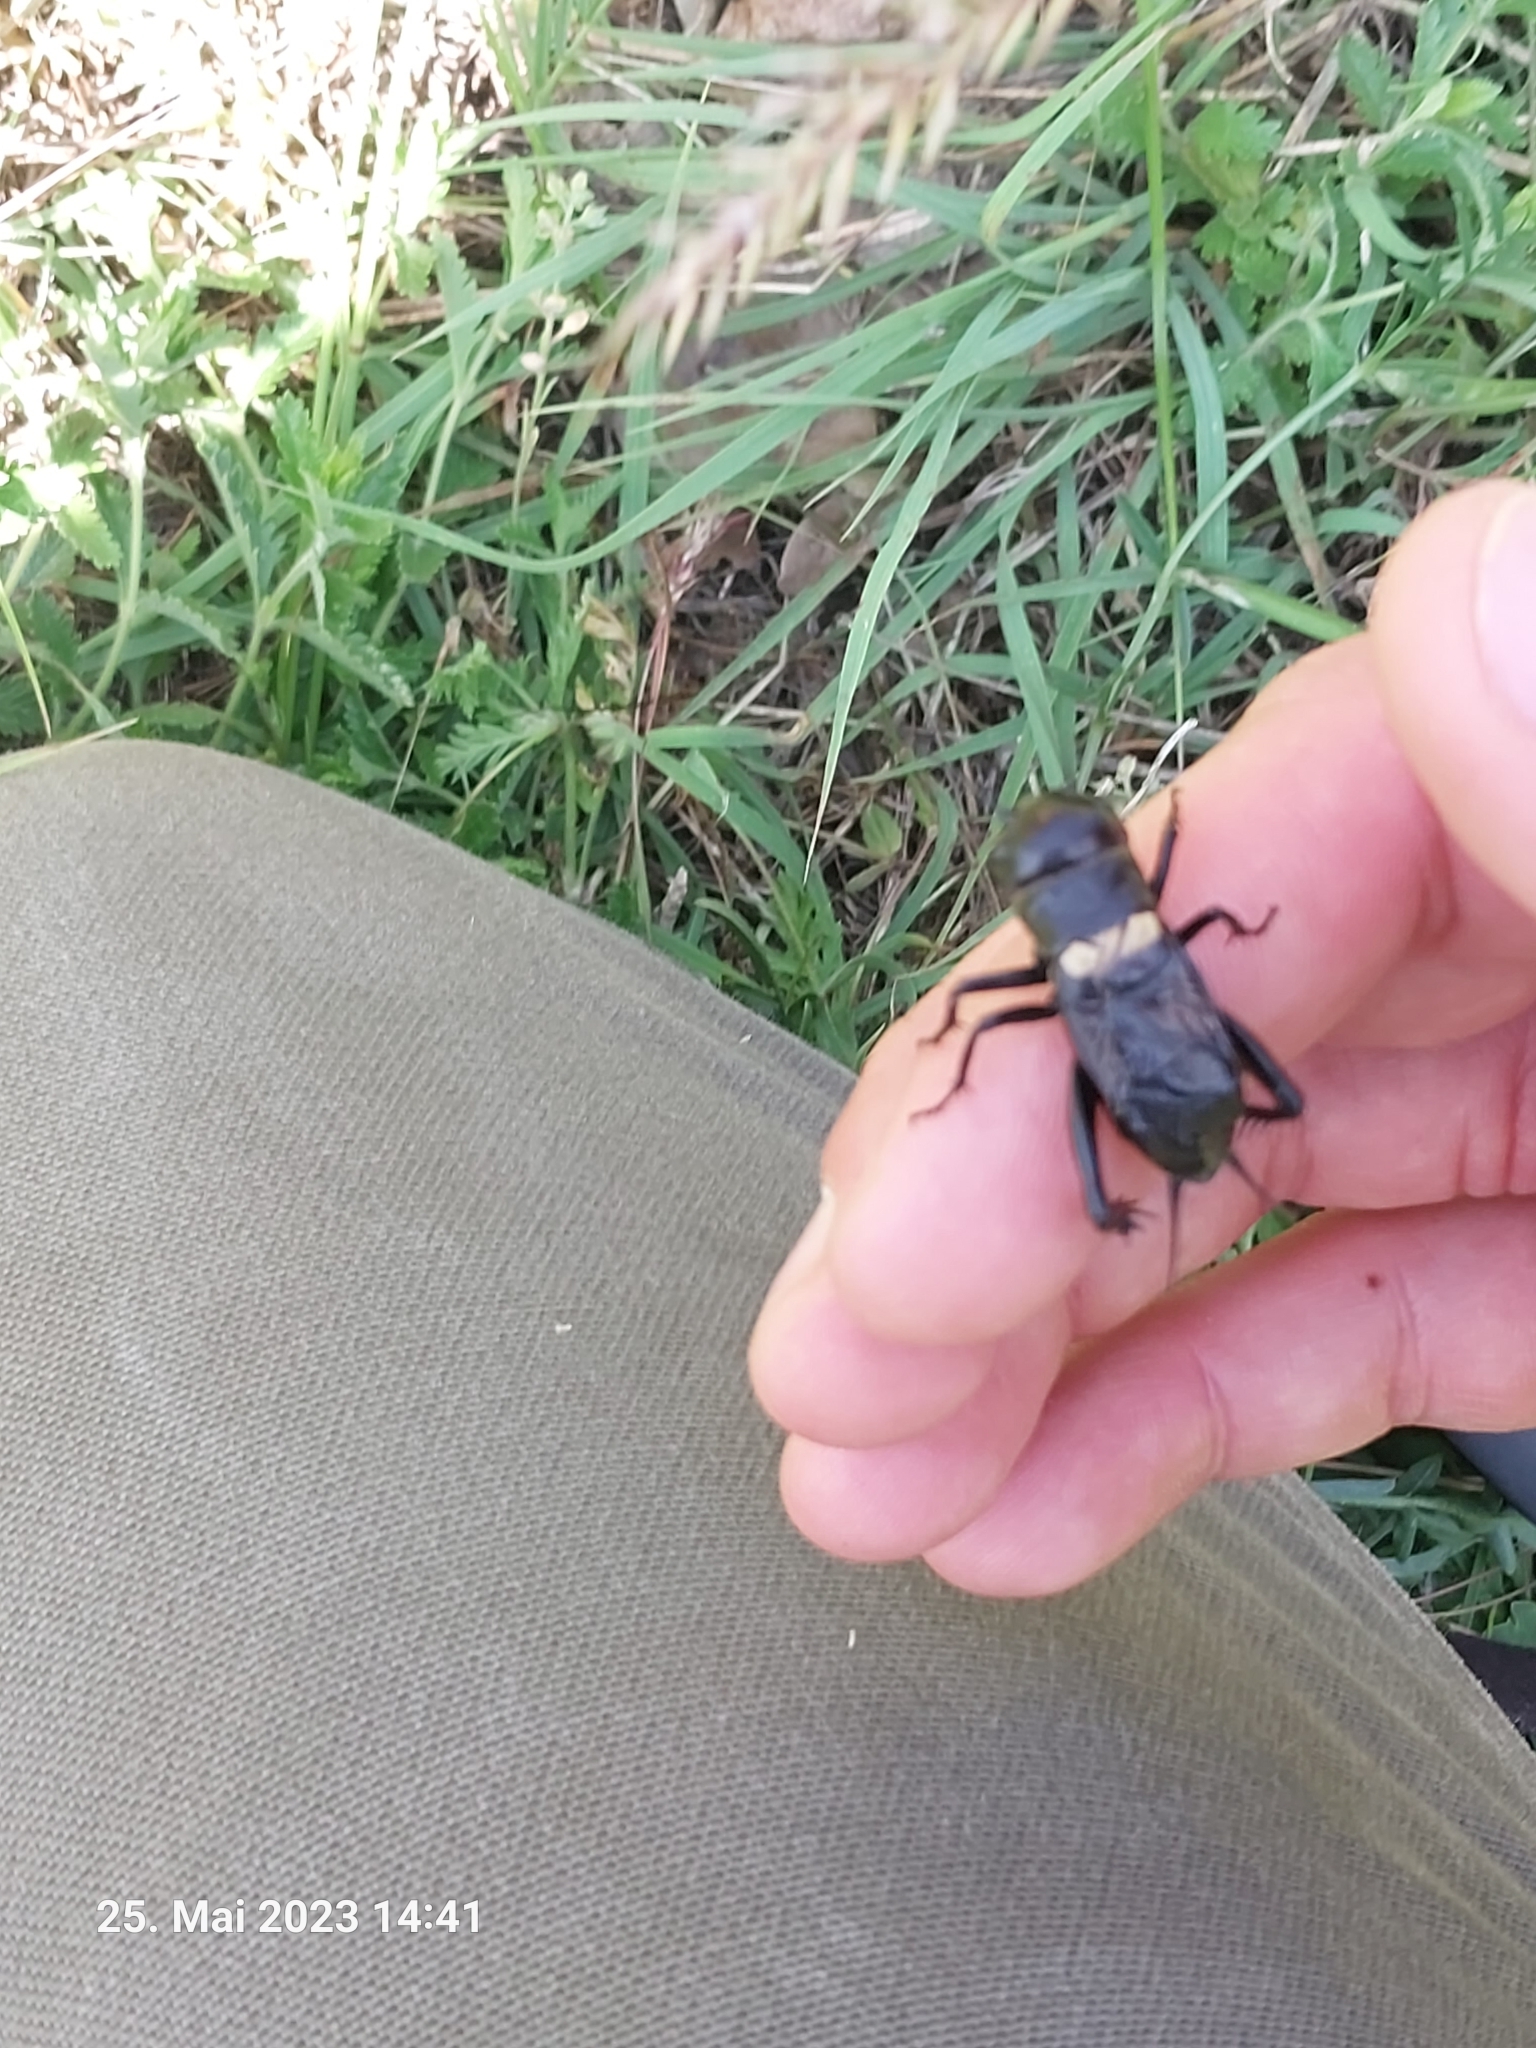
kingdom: Animalia
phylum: Arthropoda
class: Insecta
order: Orthoptera
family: Gryllidae
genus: Gryllus
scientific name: Gryllus campestris
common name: Field cricket
